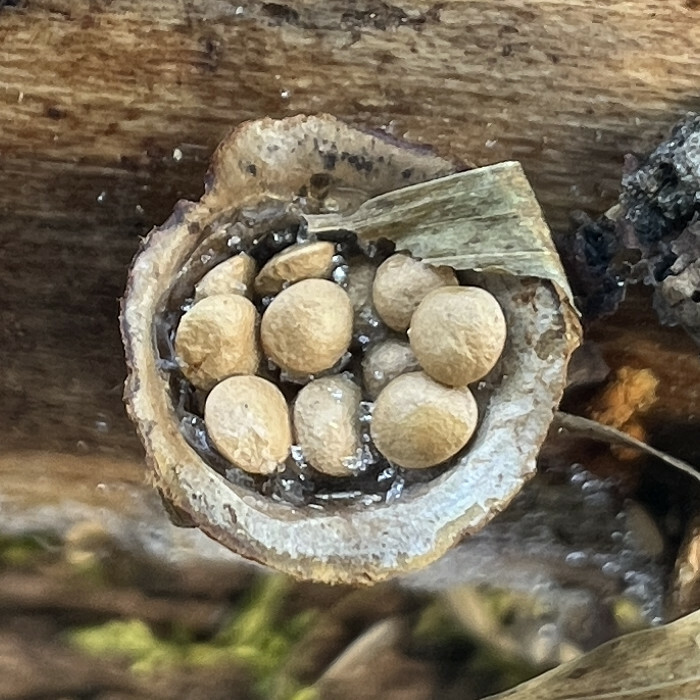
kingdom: Fungi
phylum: Basidiomycota
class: Agaricomycetes
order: Agaricales
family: Nidulariaceae
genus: Crucibulum
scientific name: Crucibulum laeve
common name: Common bird's nest
